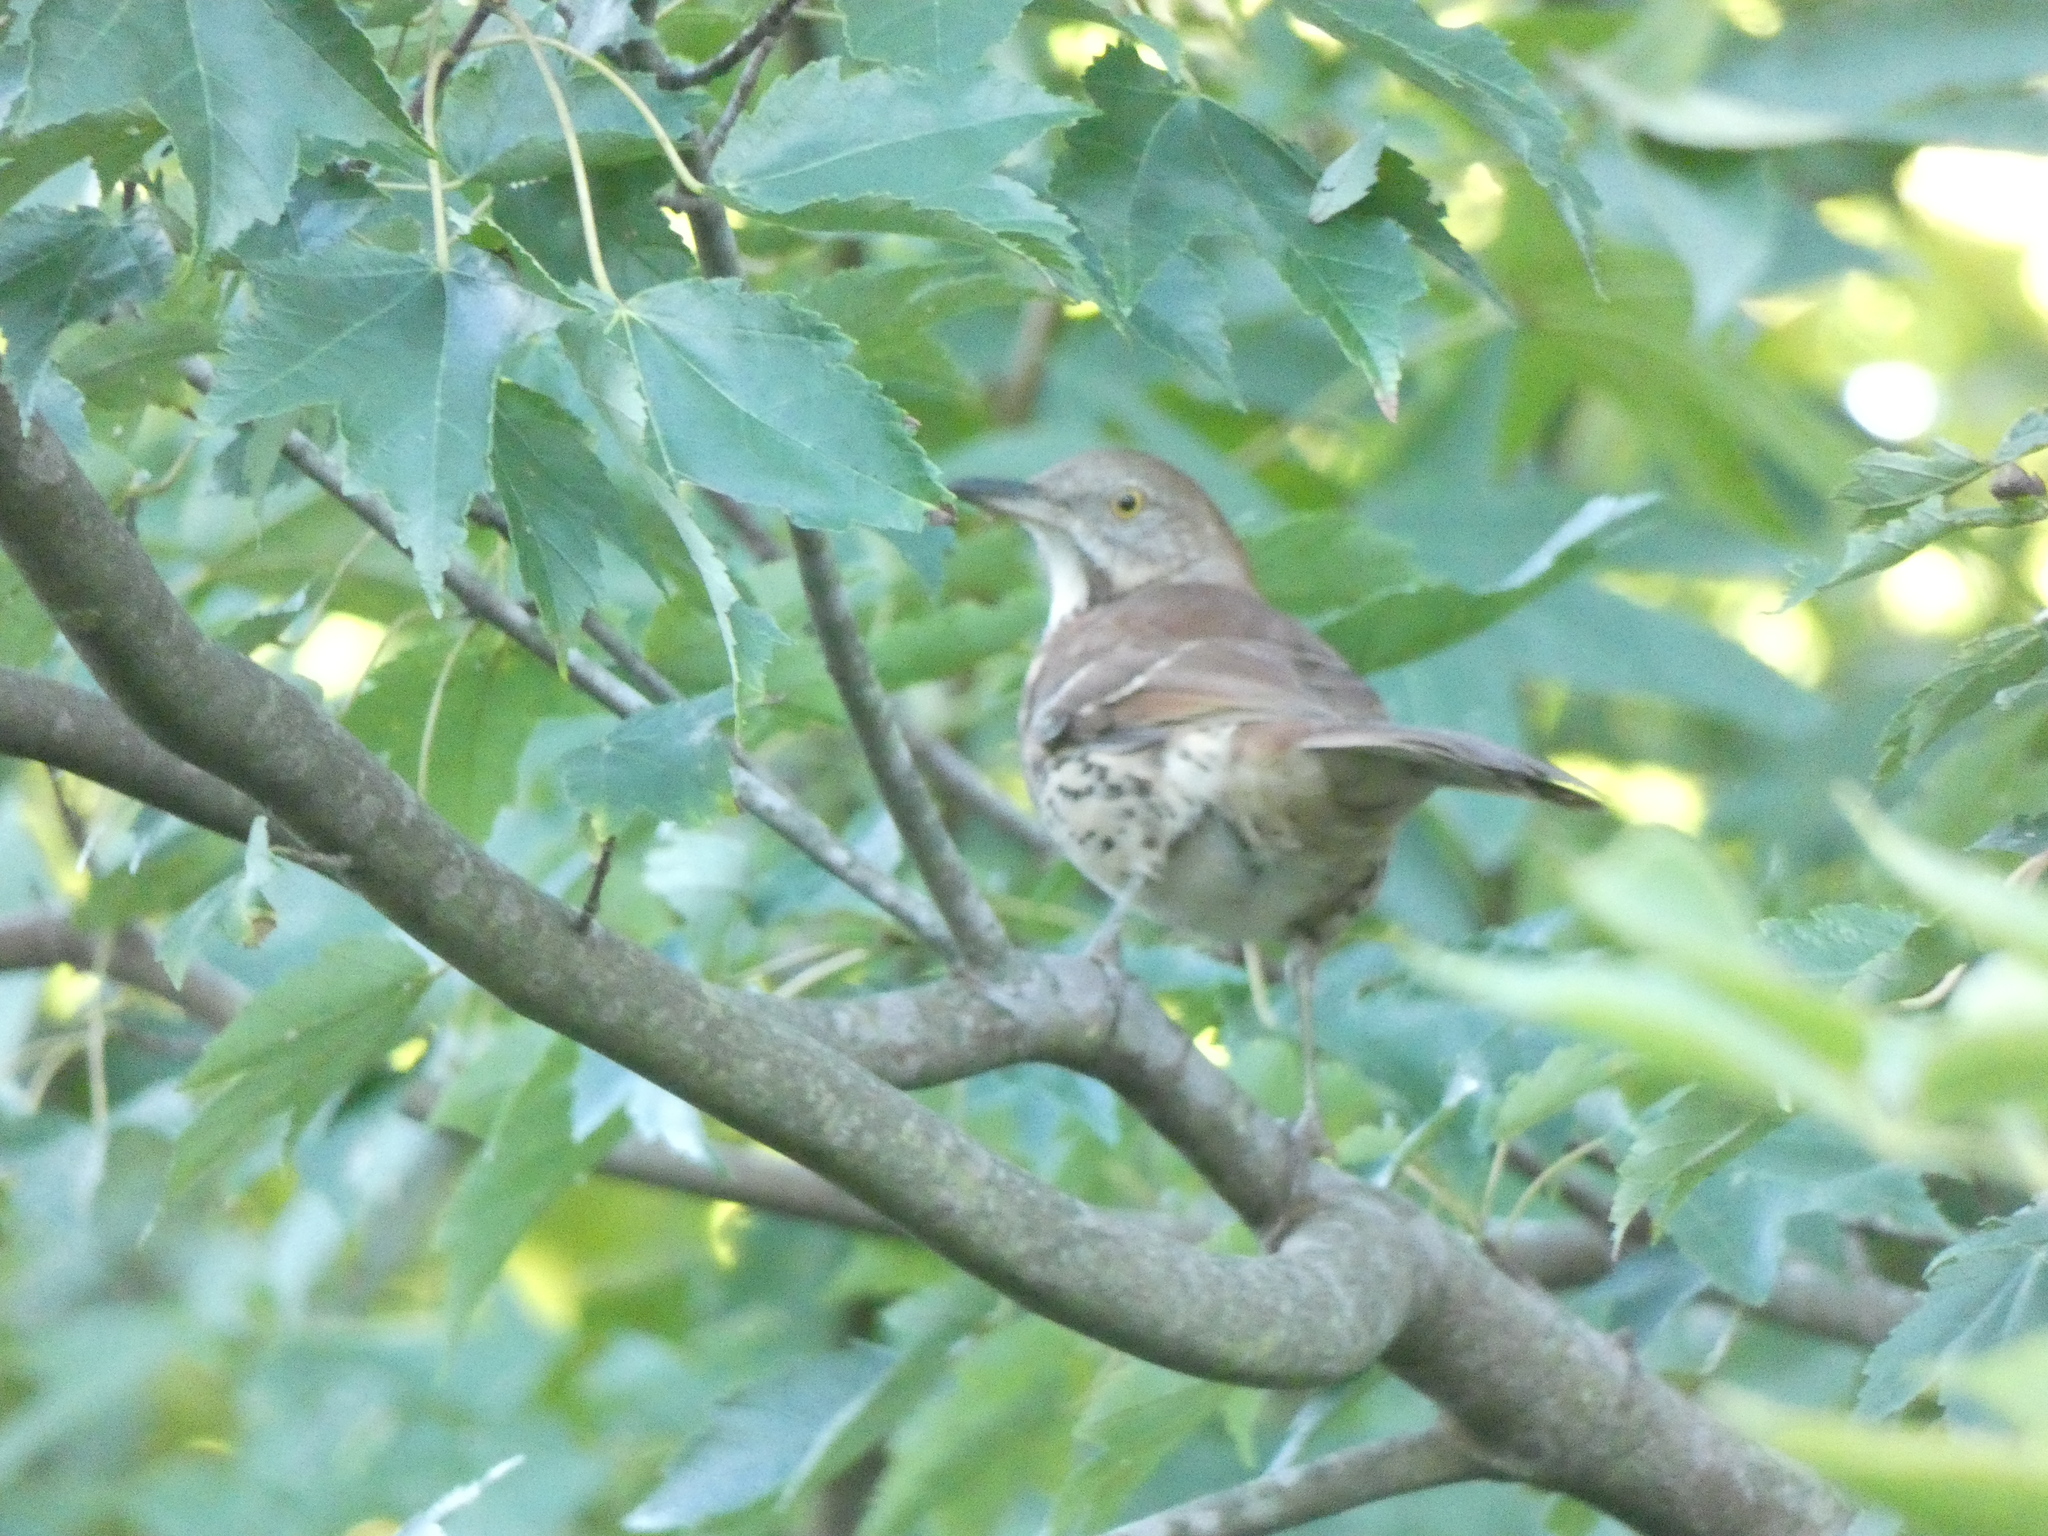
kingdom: Animalia
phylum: Chordata
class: Aves
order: Passeriformes
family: Mimidae
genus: Toxostoma
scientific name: Toxostoma rufum
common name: Brown thrasher
